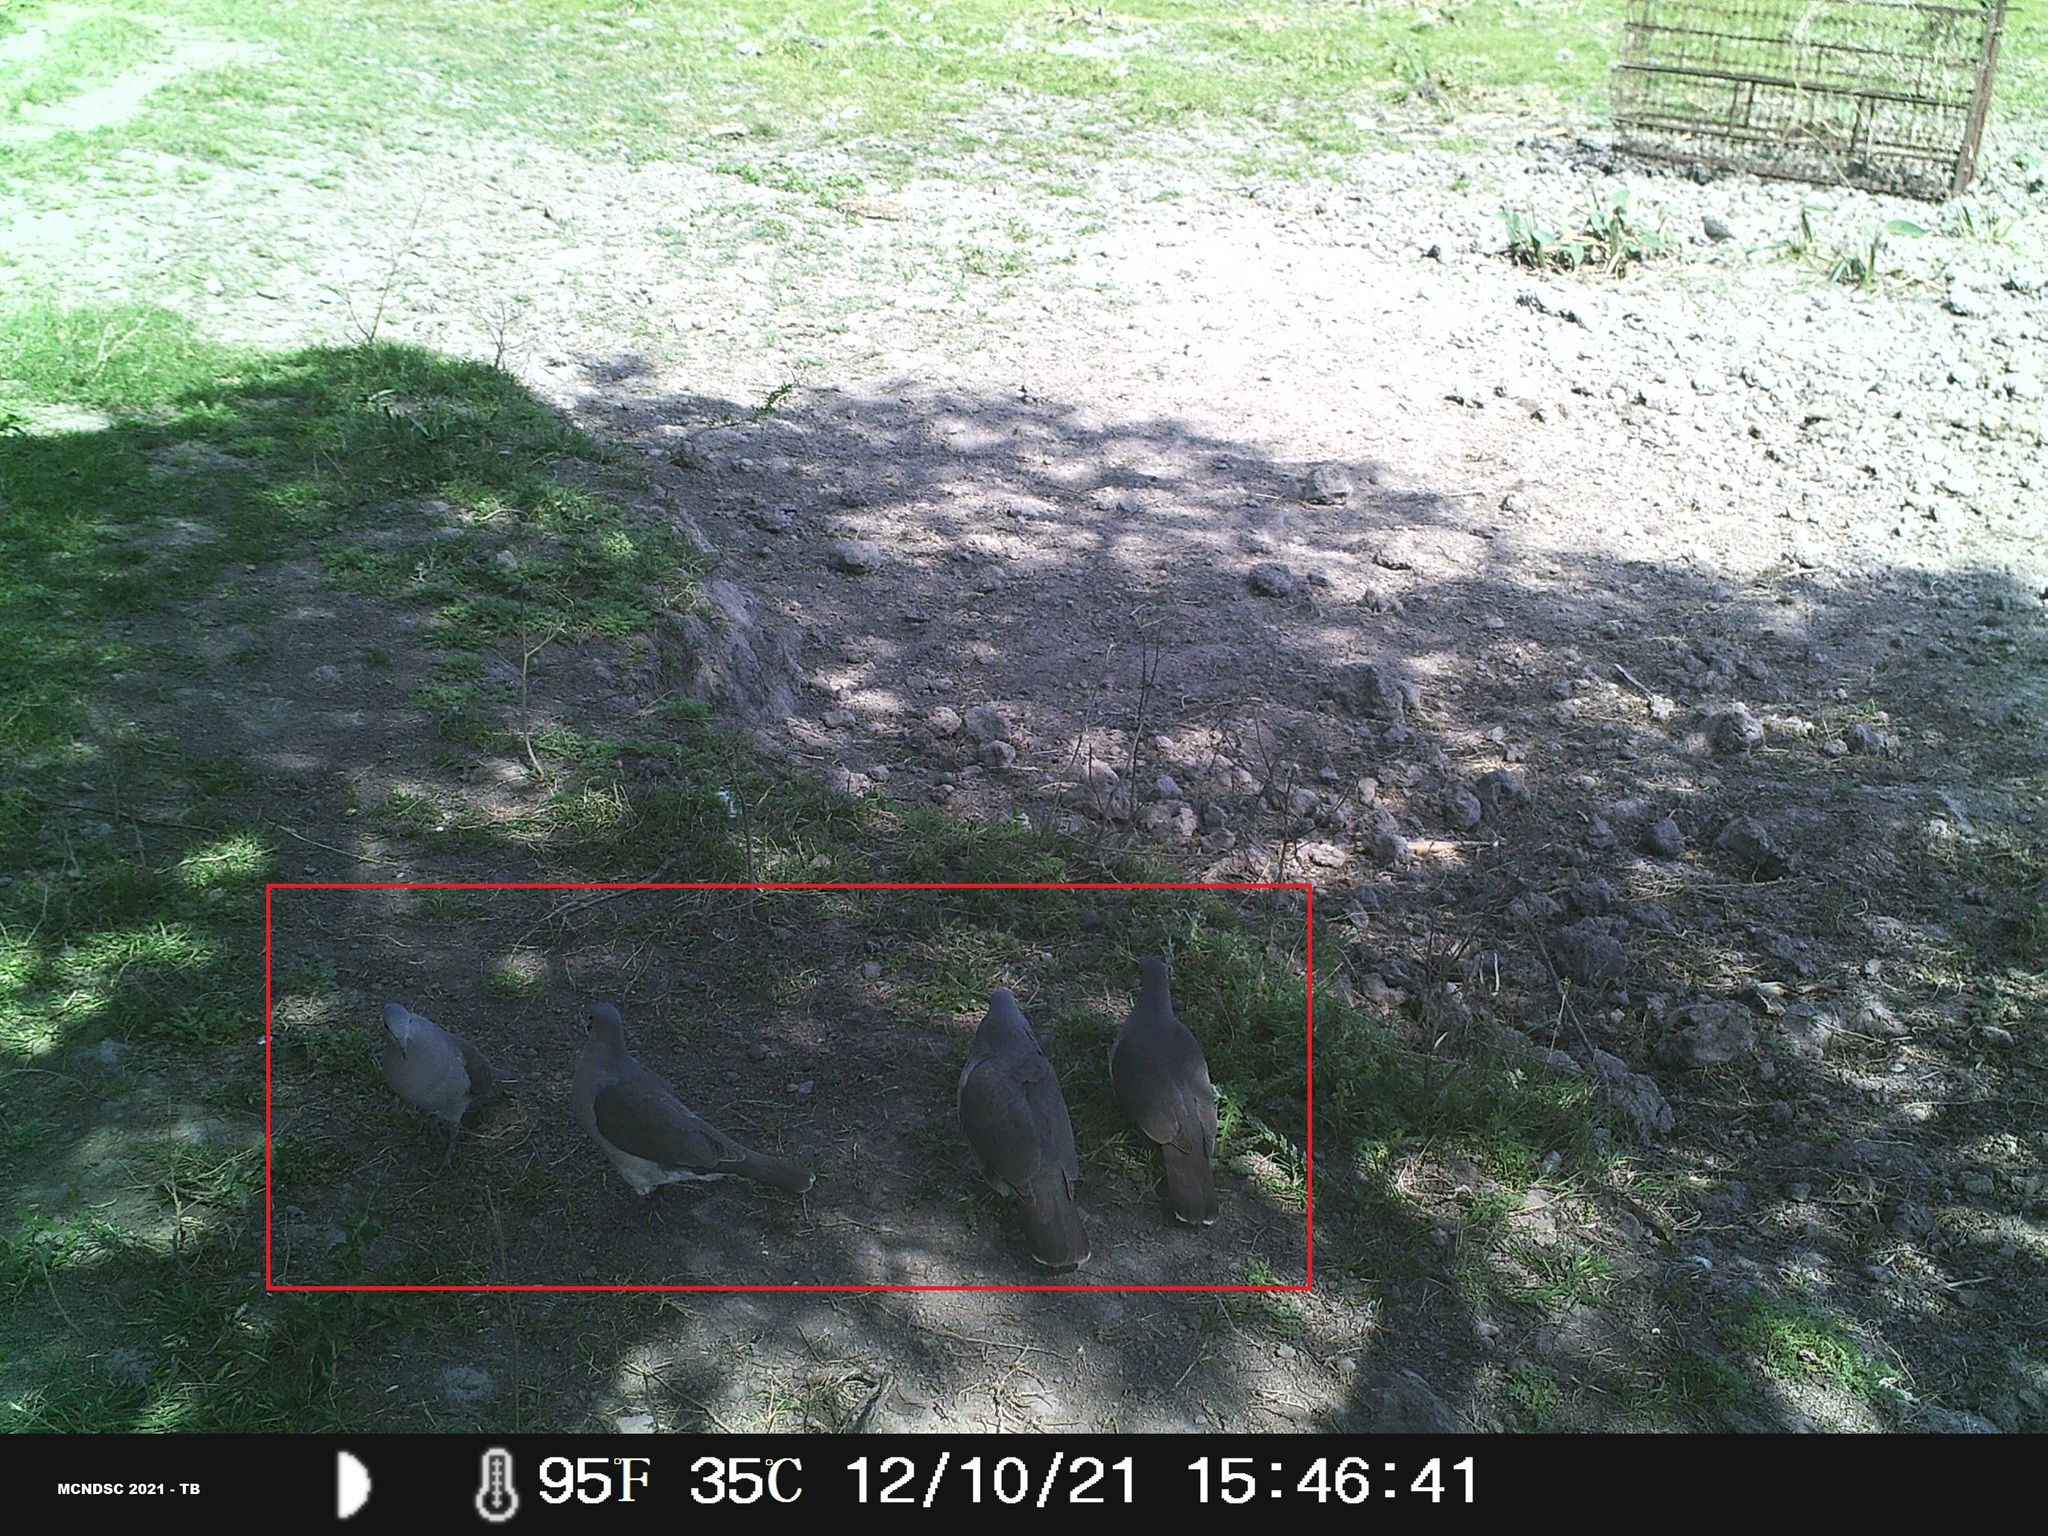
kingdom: Animalia
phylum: Chordata
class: Aves
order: Columbiformes
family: Columbidae
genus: Leptotila
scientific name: Leptotila verreauxi
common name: White-tipped dove
